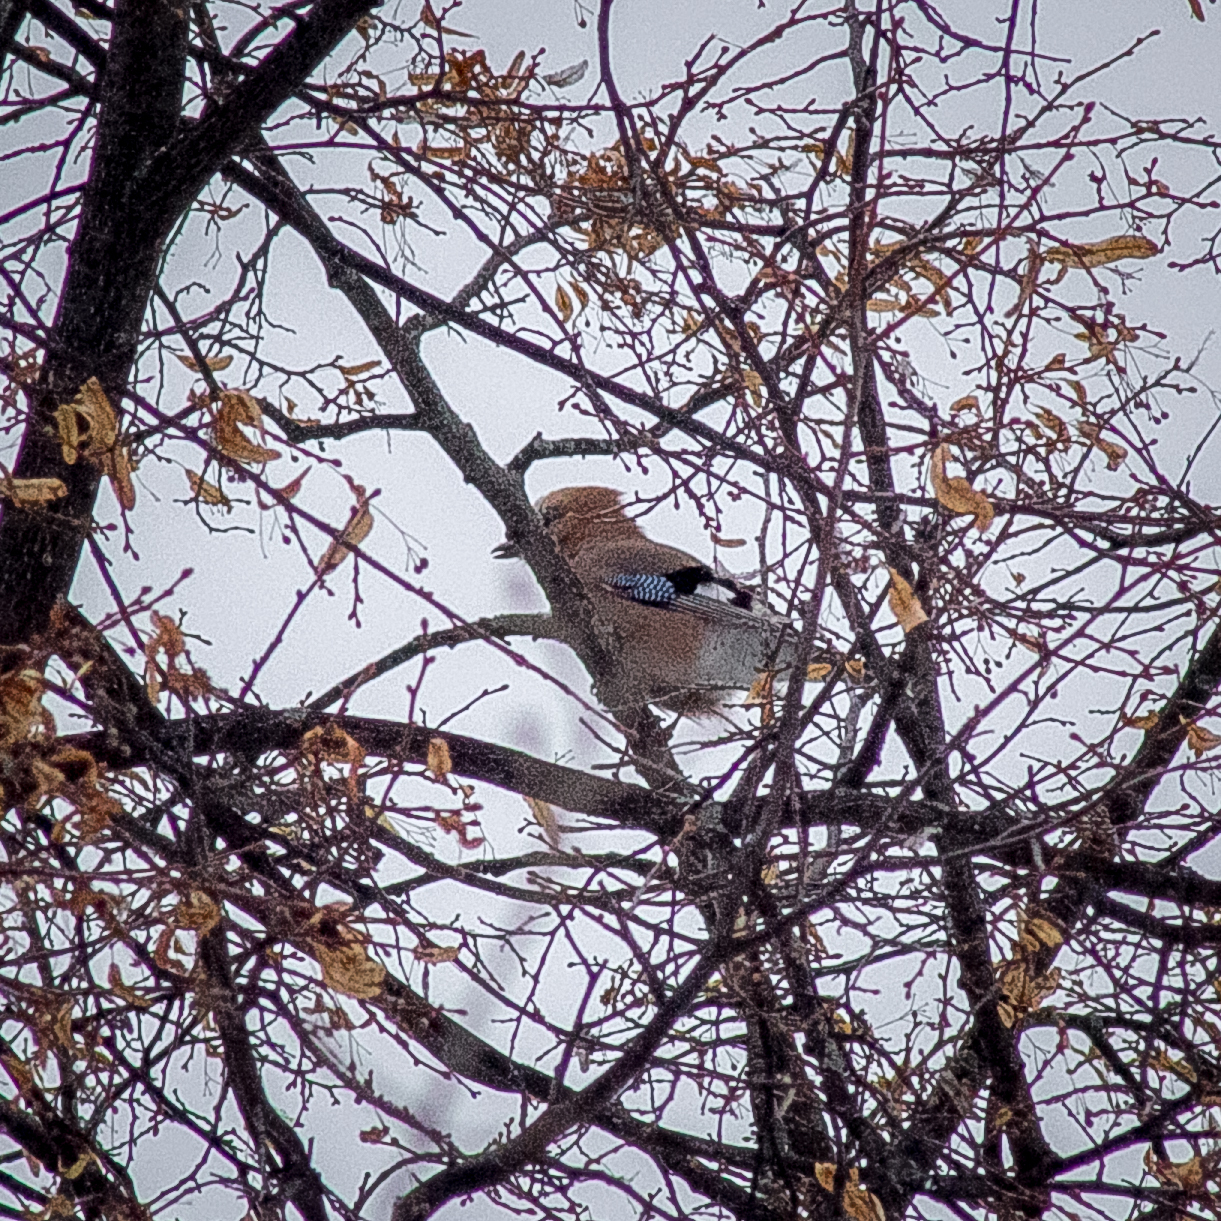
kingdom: Animalia
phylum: Chordata
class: Aves
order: Passeriformes
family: Corvidae
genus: Garrulus
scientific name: Garrulus glandarius
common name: Eurasian jay
